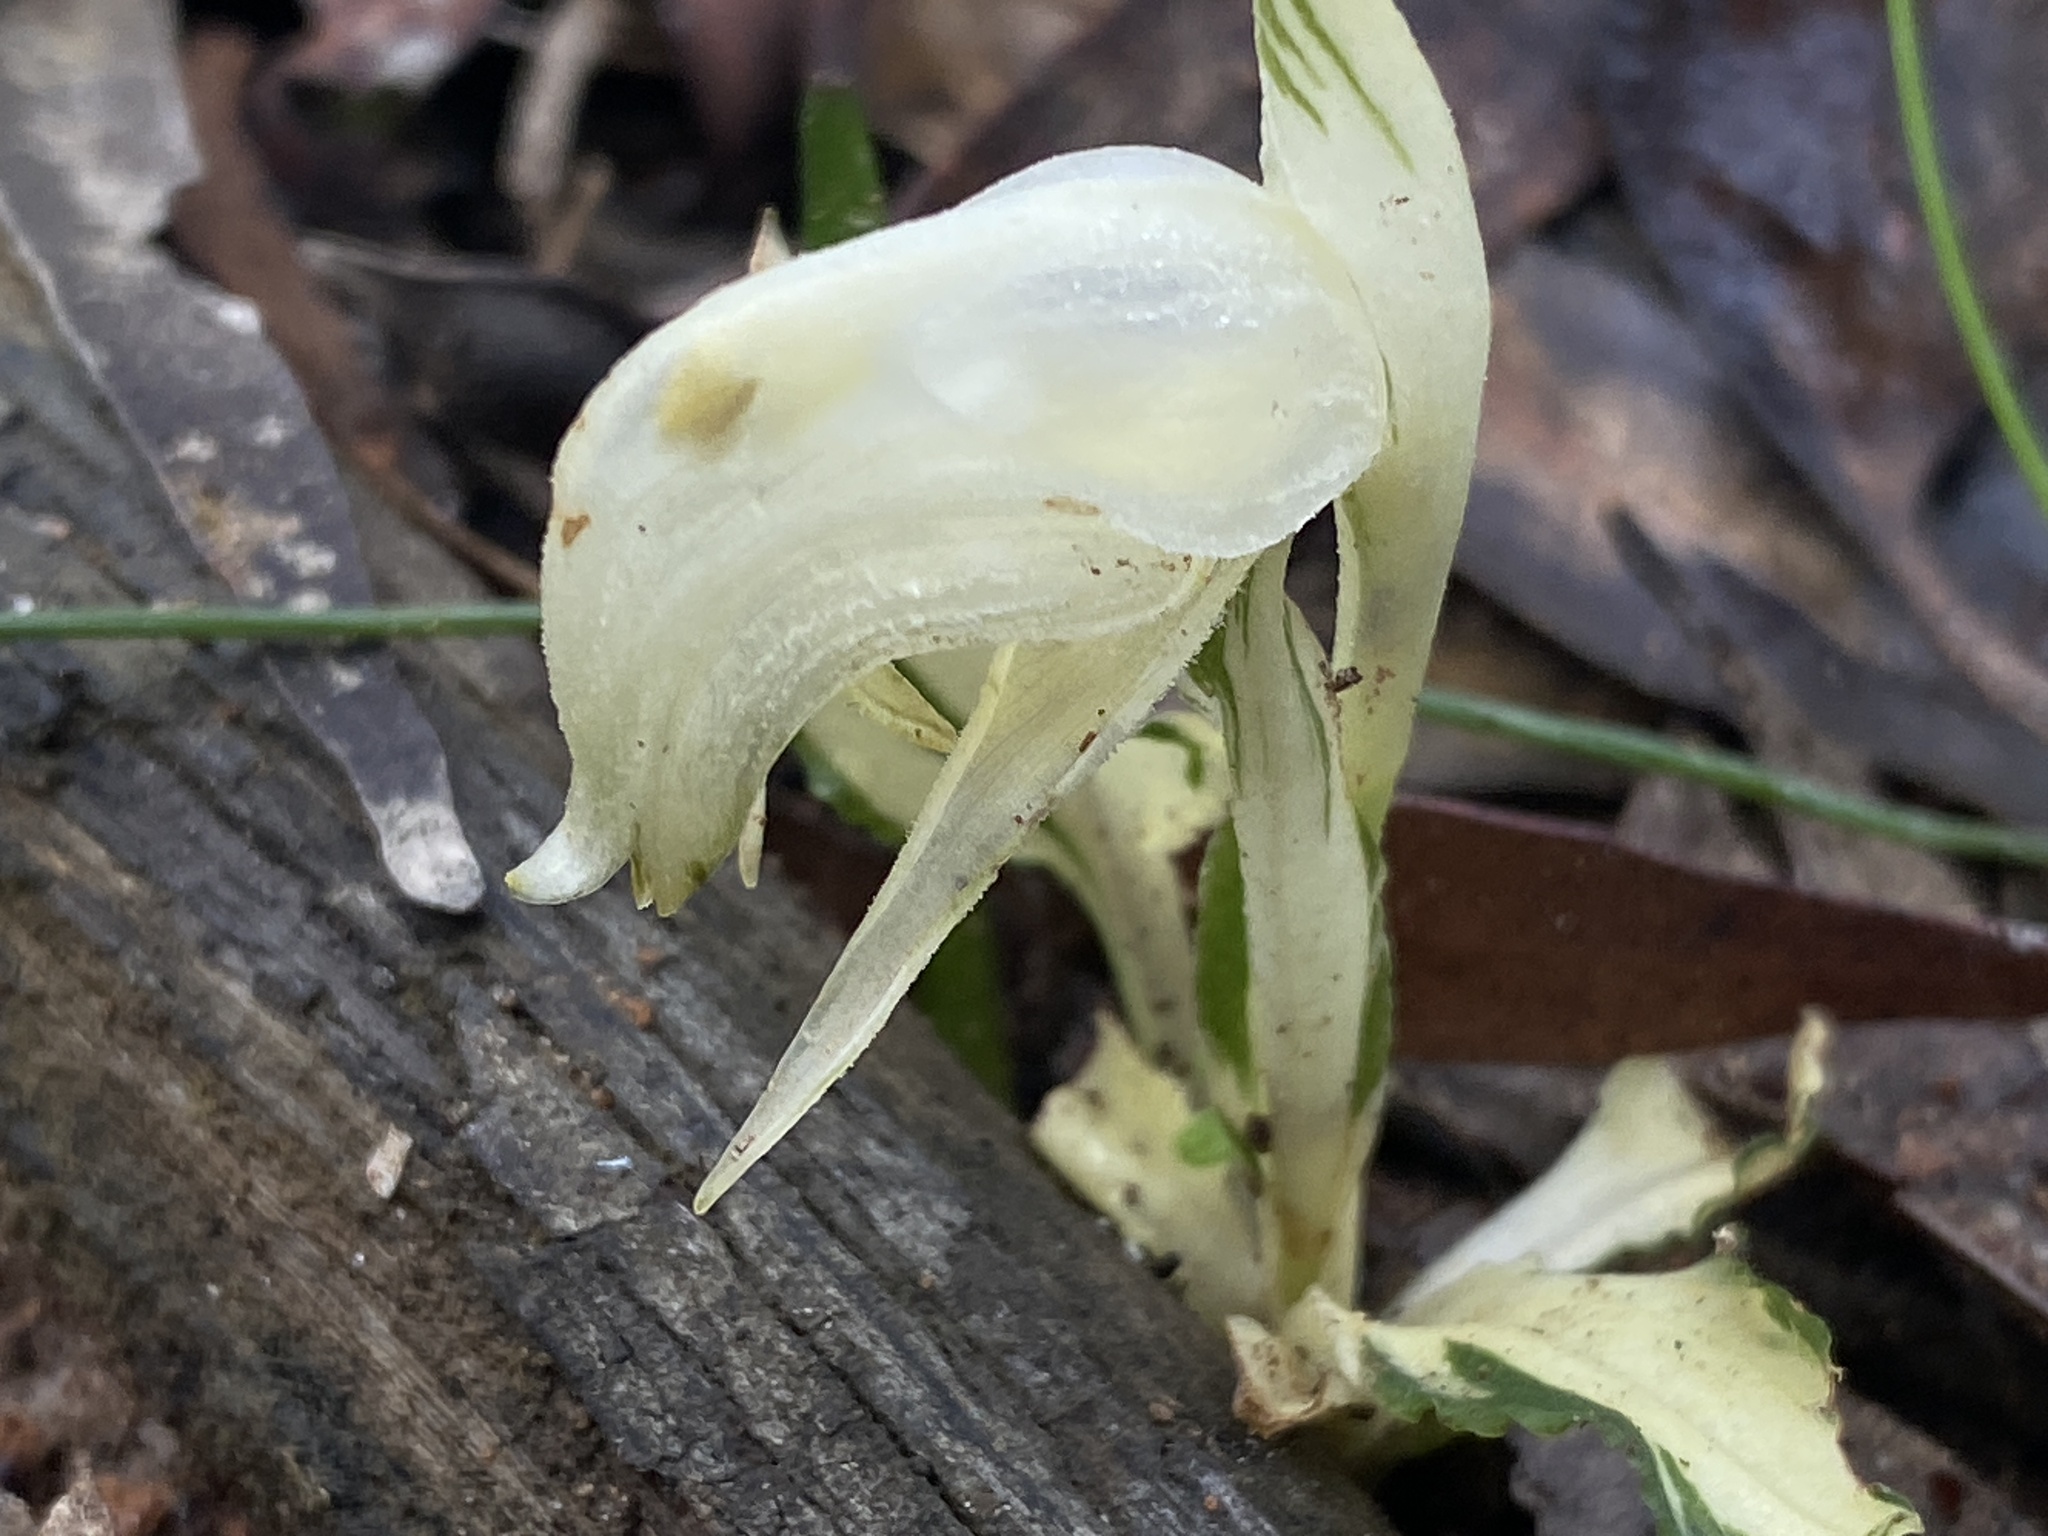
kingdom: Plantae
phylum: Tracheophyta
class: Liliopsida
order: Asparagales
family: Orchidaceae
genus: Pterostylis
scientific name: Pterostylis nutans
